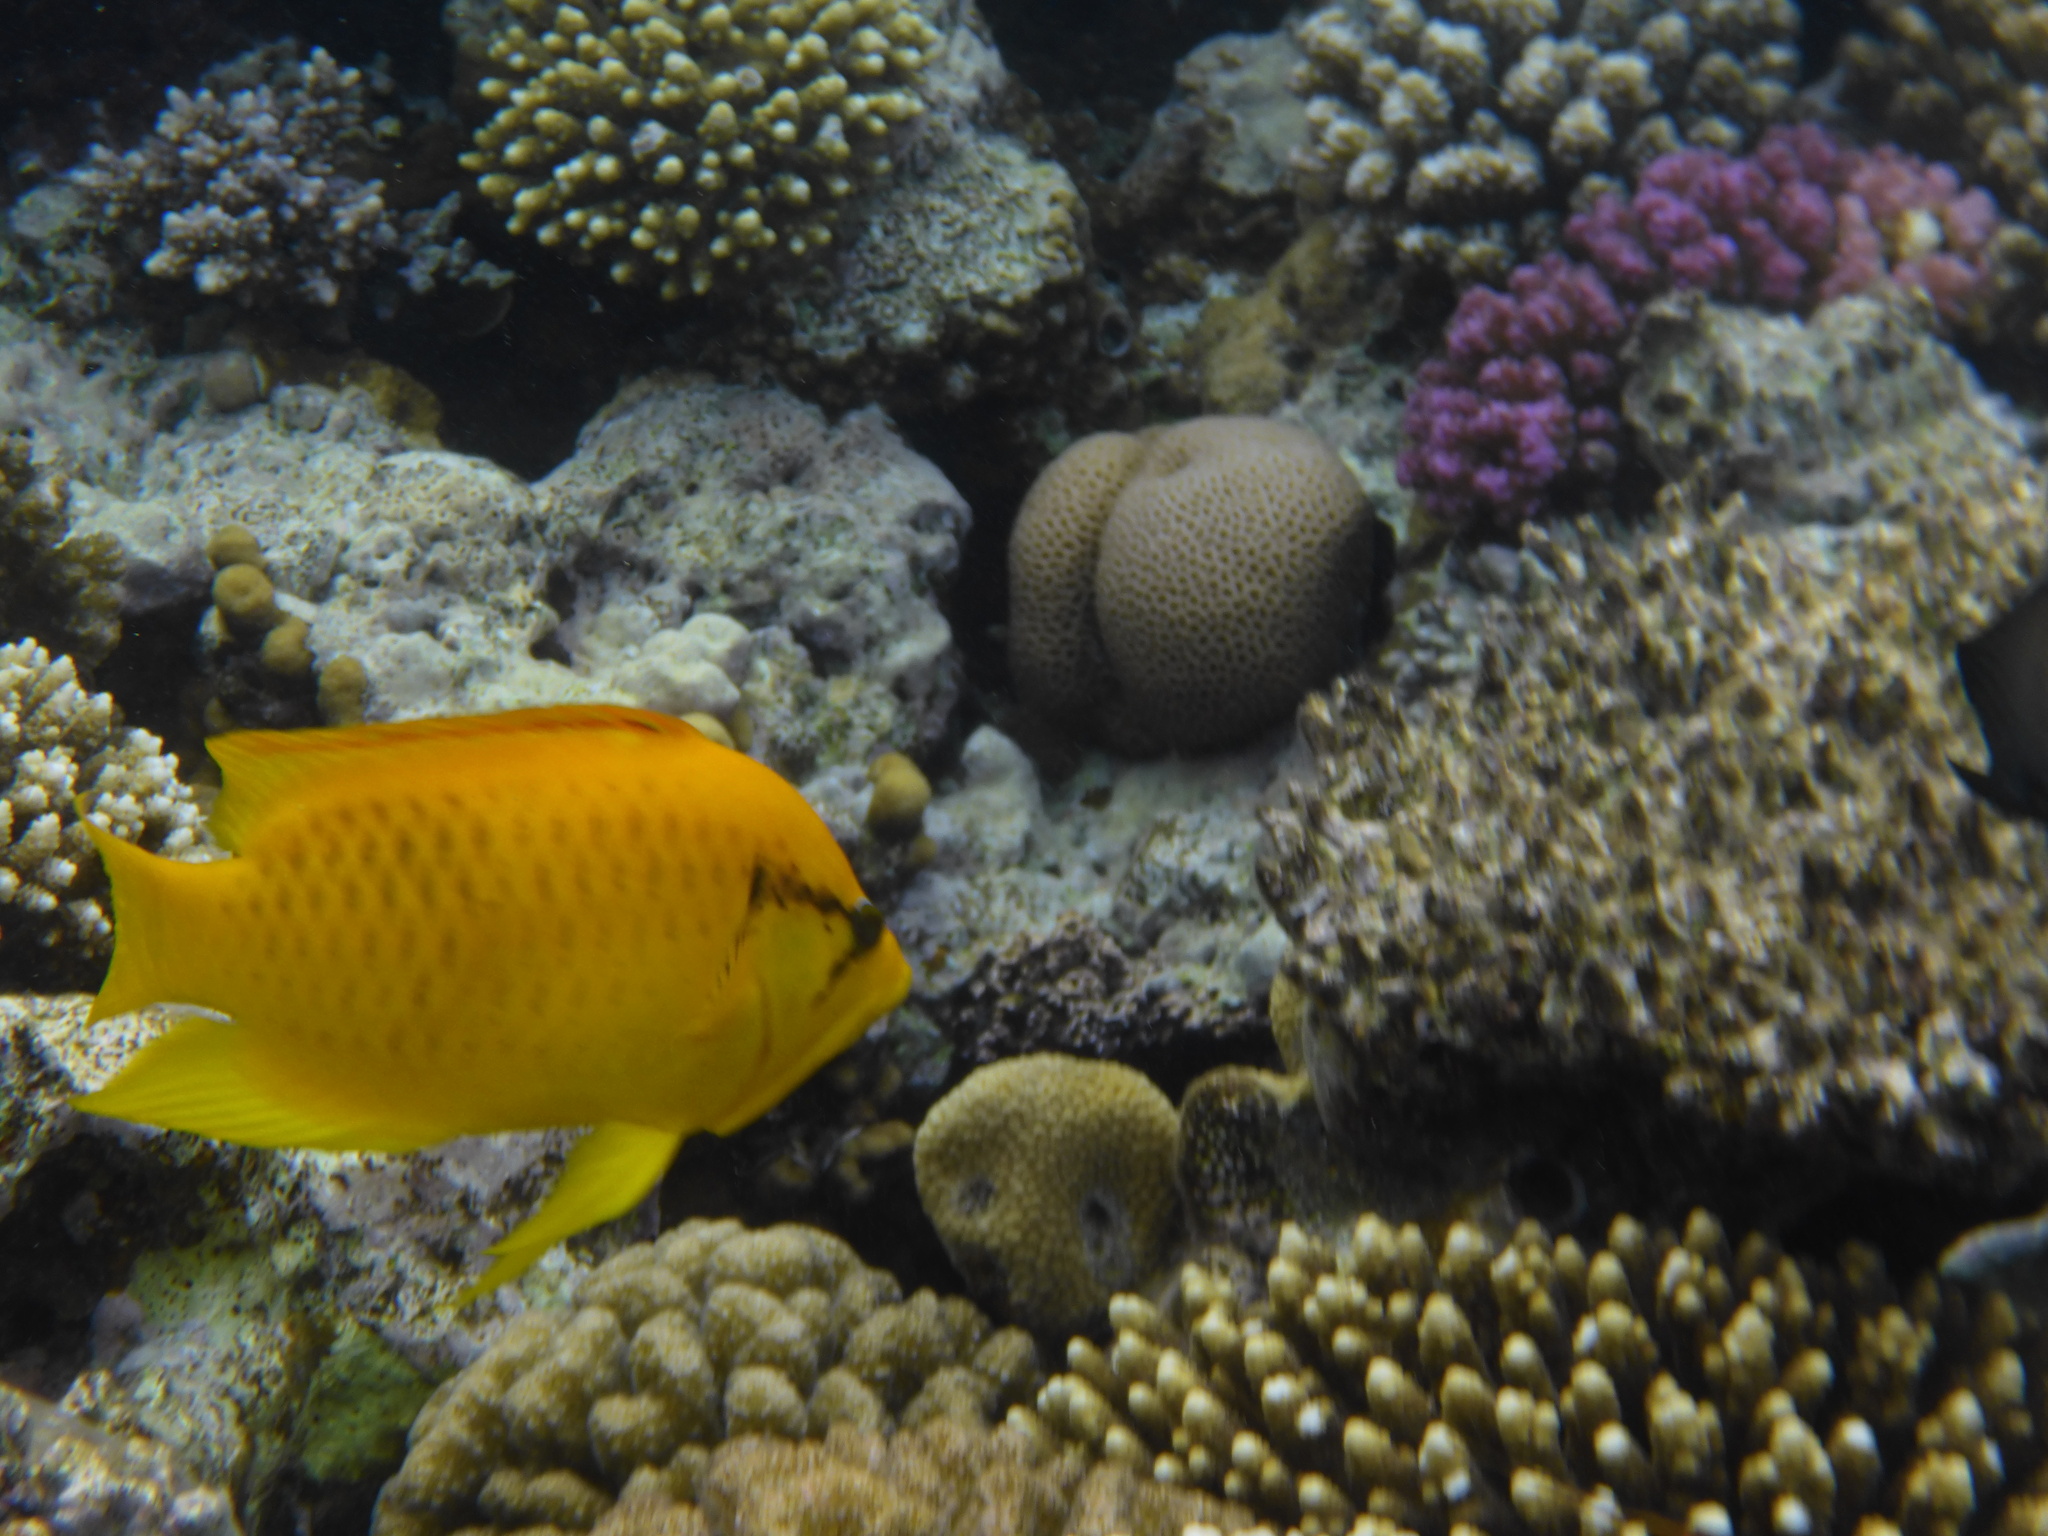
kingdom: Animalia
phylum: Chordata
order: Perciformes
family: Labridae
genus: Epibulus
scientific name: Epibulus insidiator
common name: Slingjaw wrasse
